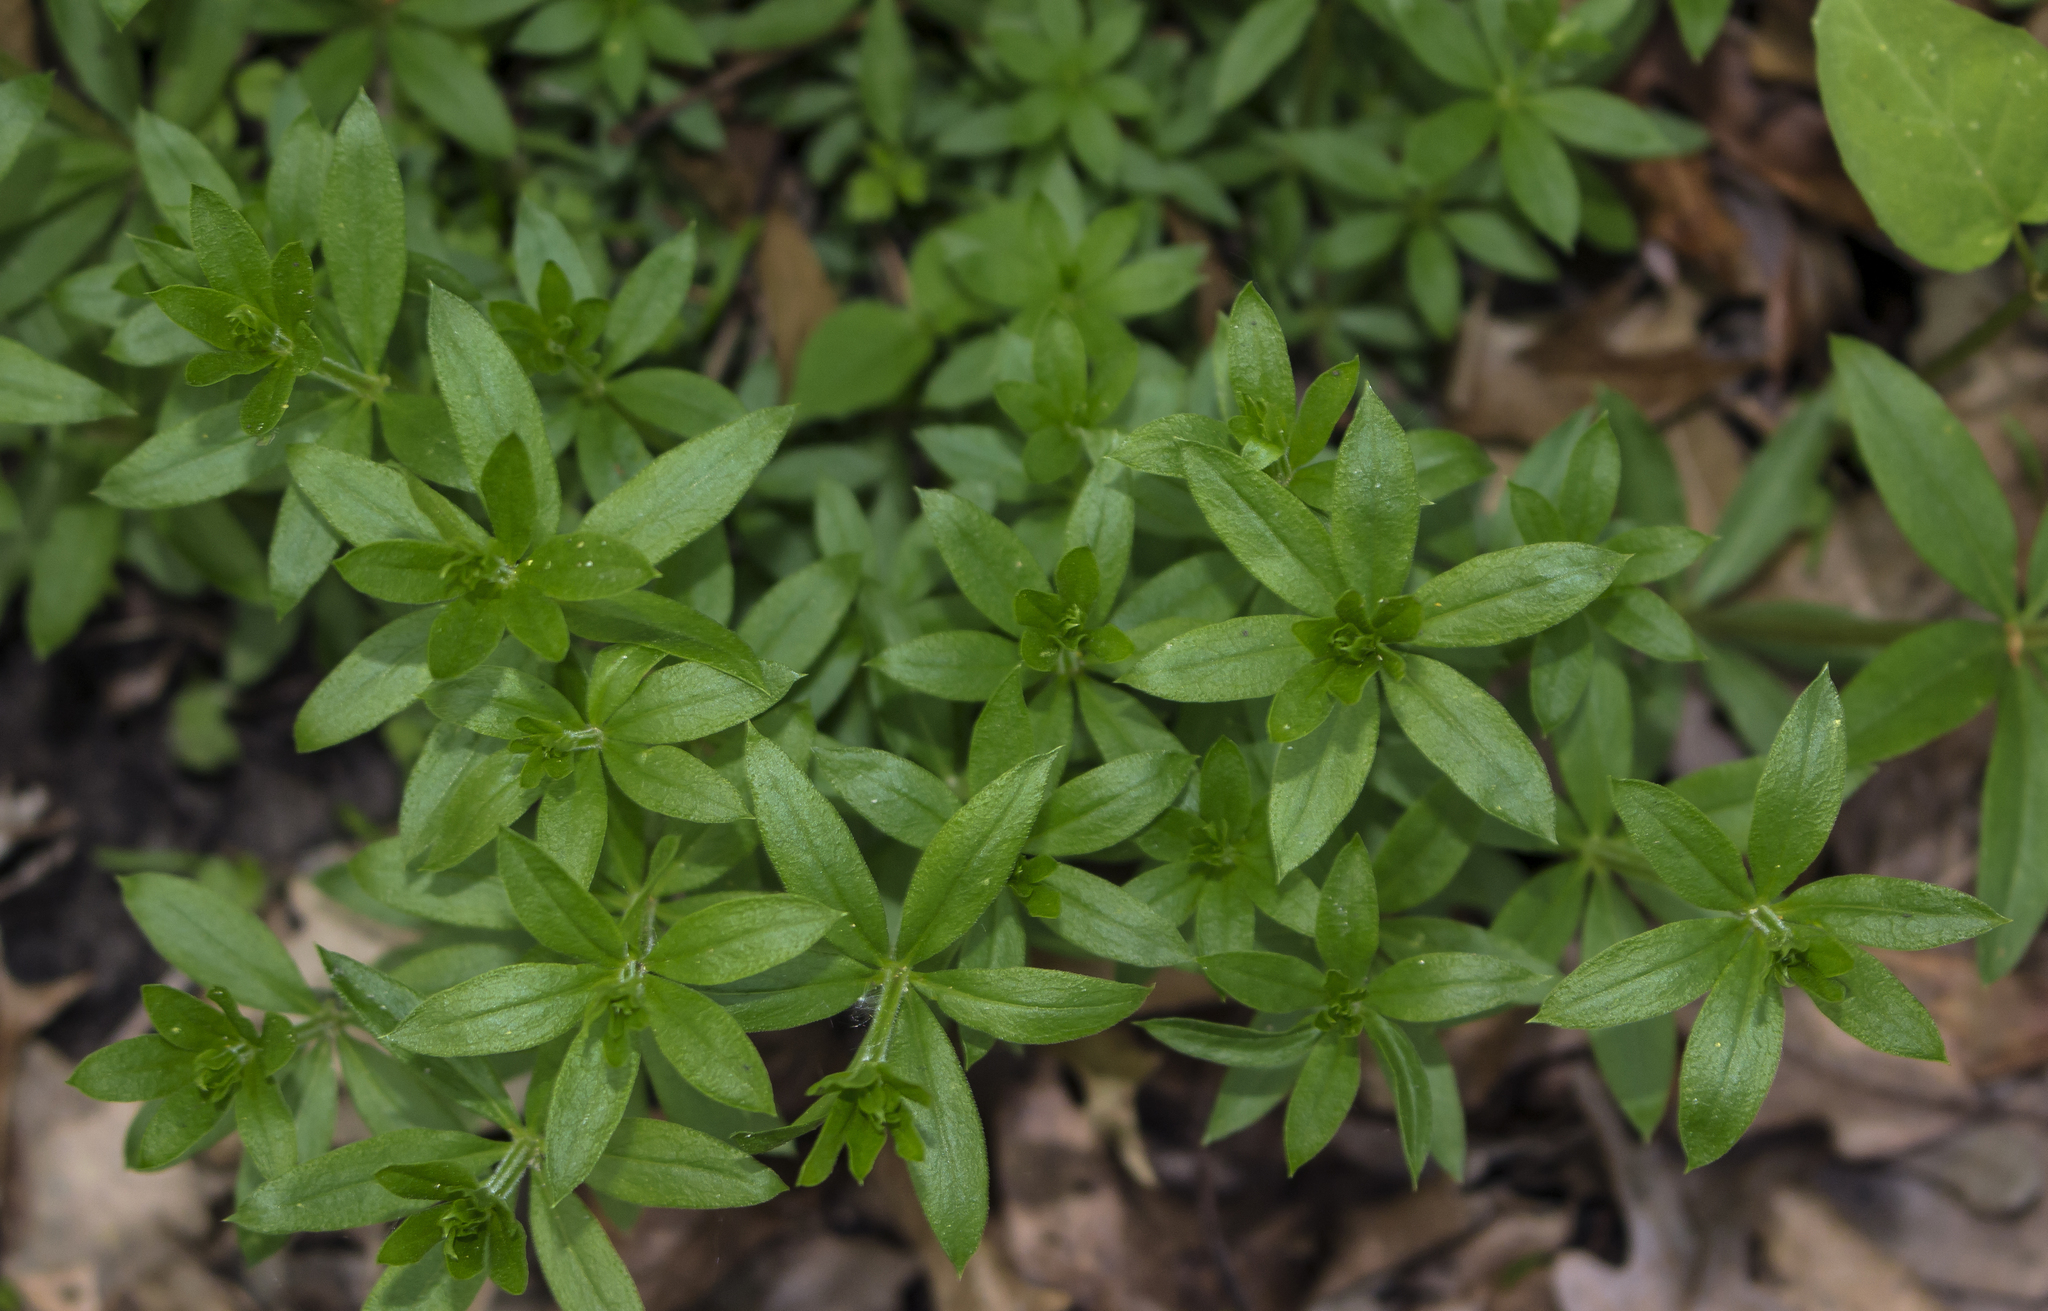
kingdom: Plantae
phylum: Tracheophyta
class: Magnoliopsida
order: Gentianales
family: Rubiaceae
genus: Galium
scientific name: Galium triflorum
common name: Fragrant bedstraw
